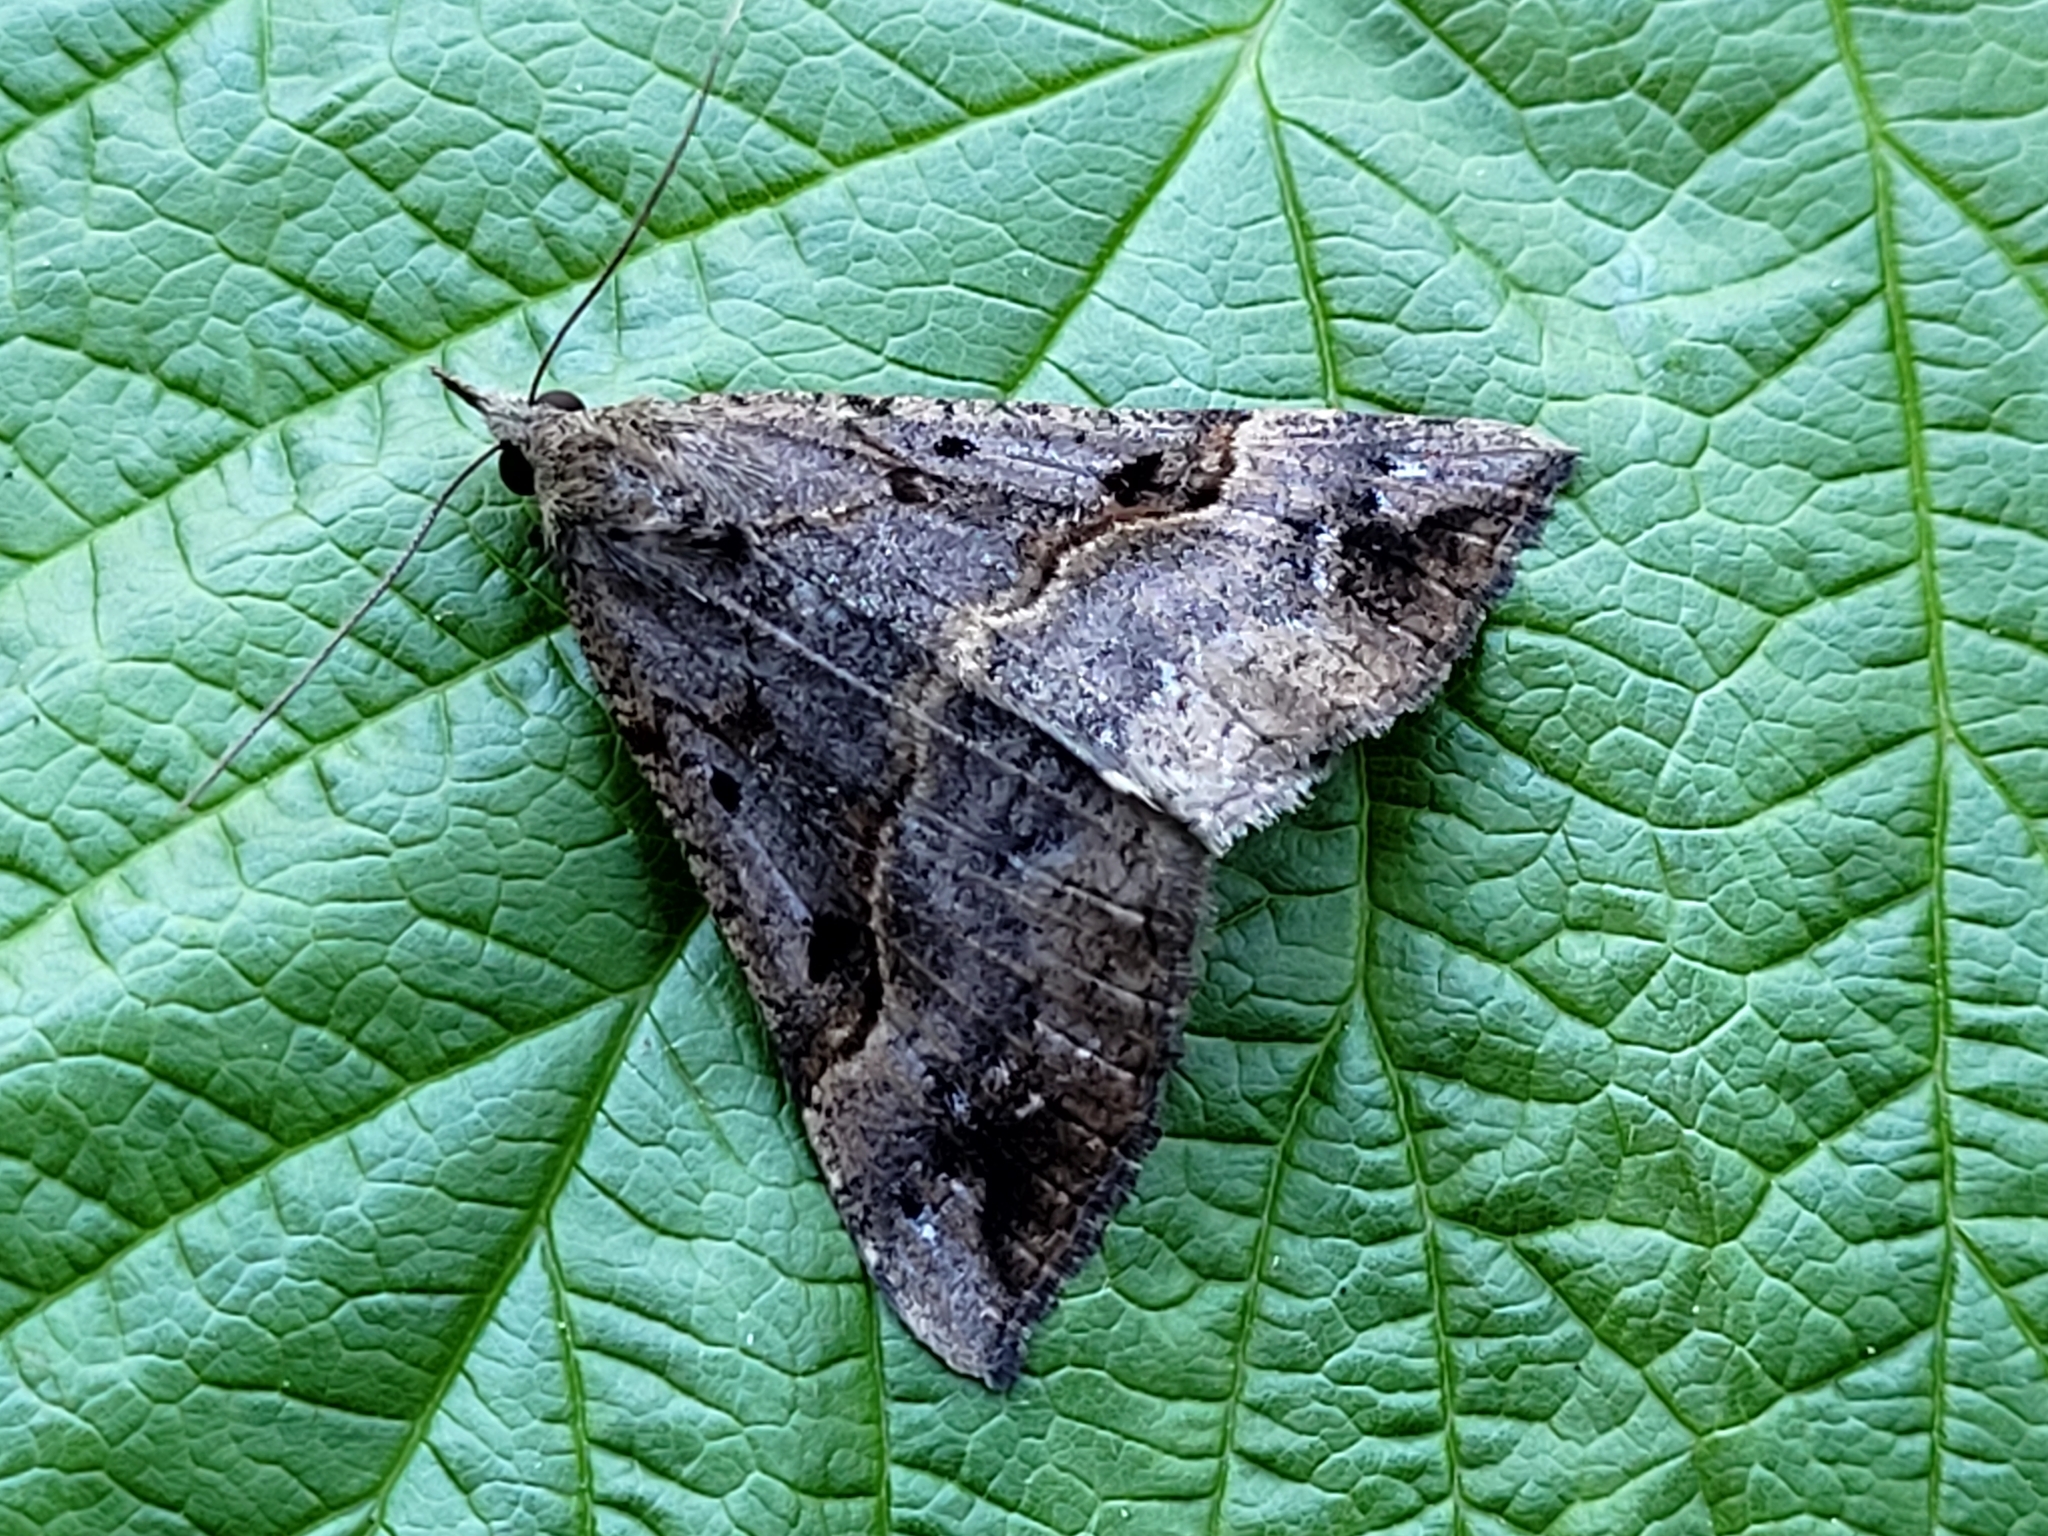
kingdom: Animalia
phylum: Arthropoda
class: Insecta
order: Lepidoptera
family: Erebidae
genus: Hypena
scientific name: Hypena edictalis
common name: Large snout
